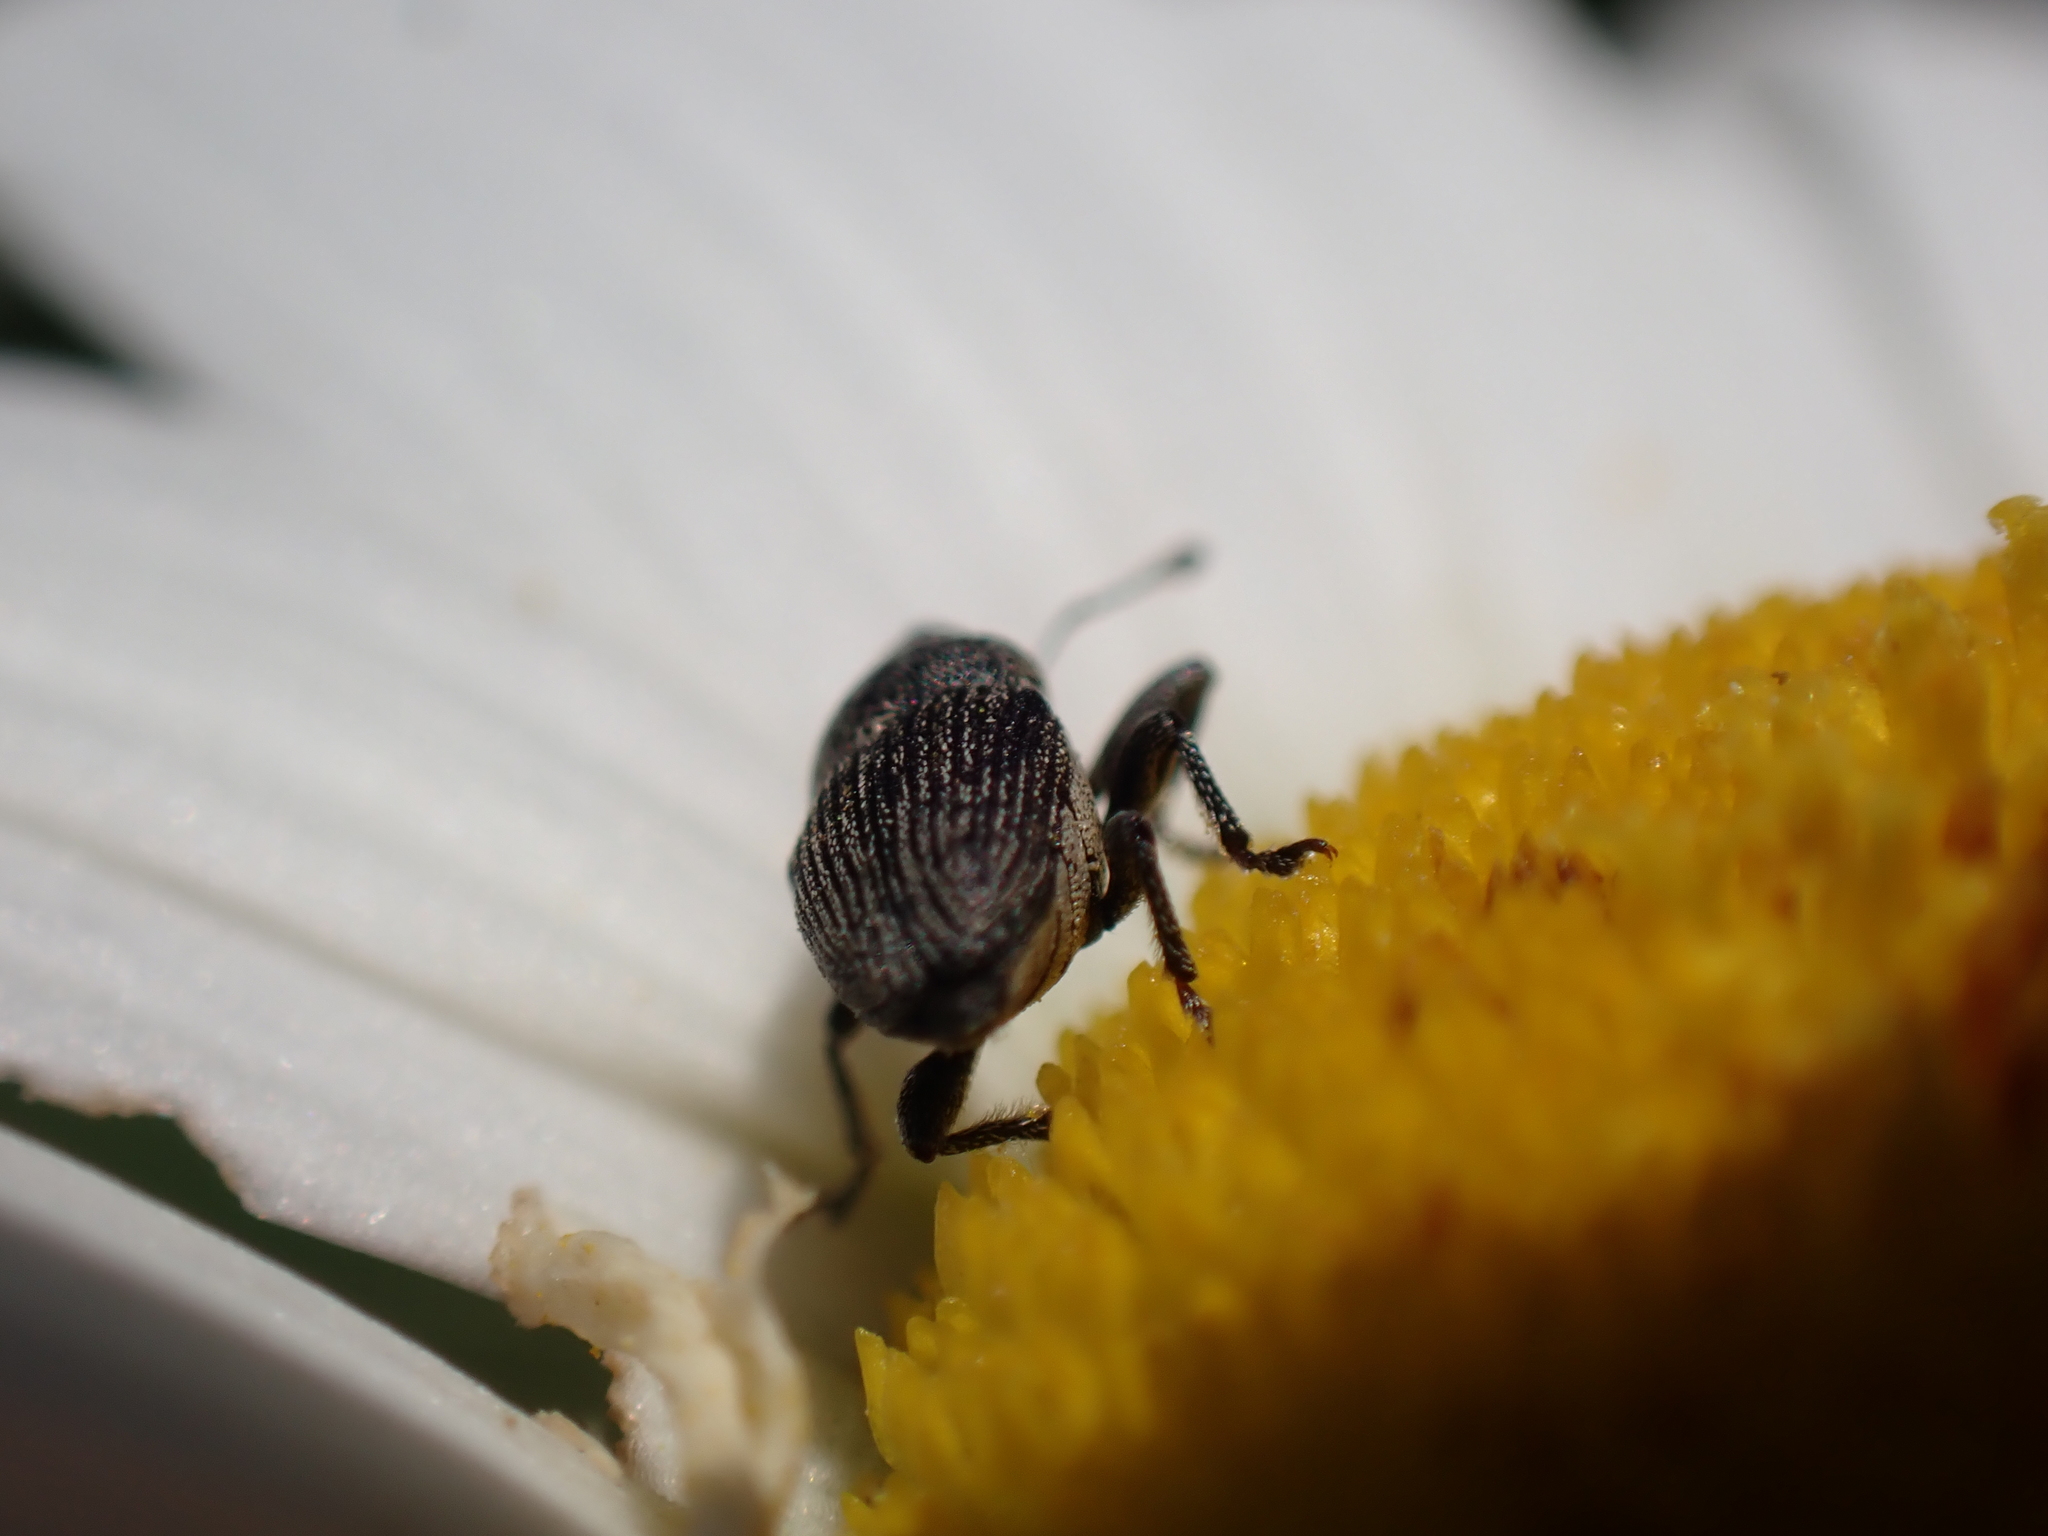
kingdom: Animalia
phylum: Arthropoda
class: Insecta
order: Coleoptera
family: Curculionidae
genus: Odontocorynus
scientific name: Odontocorynus salebrosus
